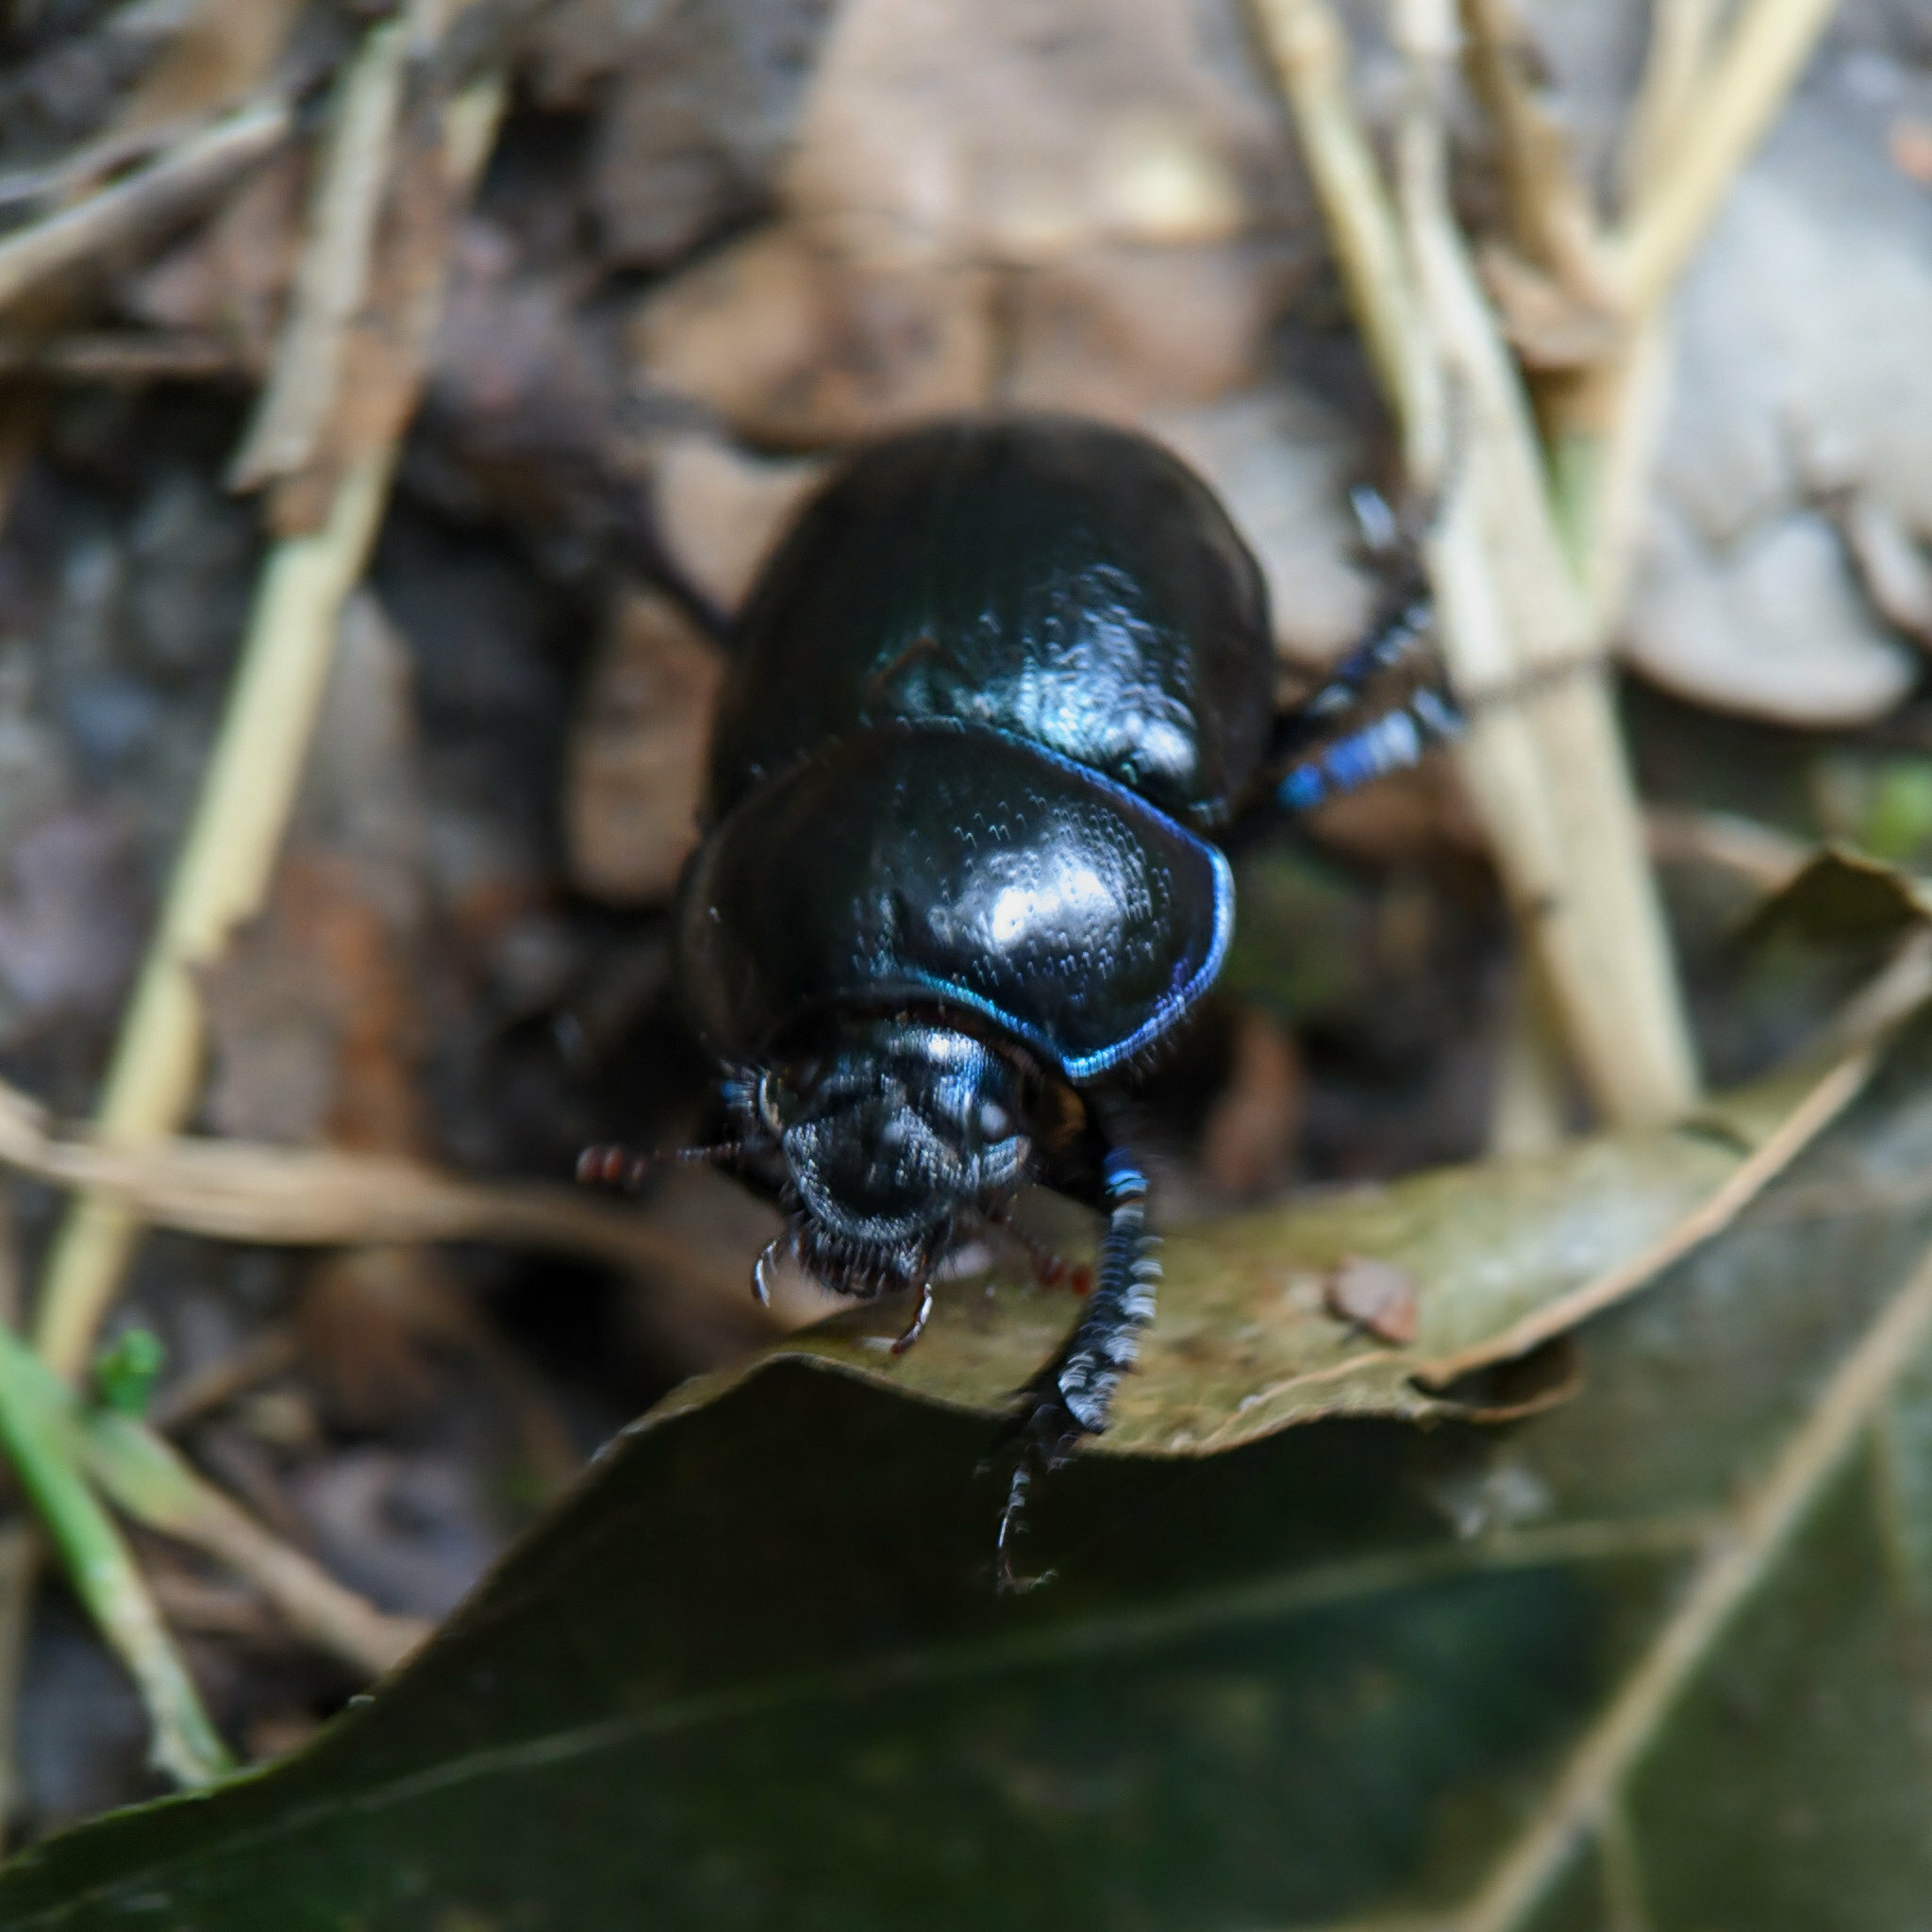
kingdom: Animalia
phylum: Arthropoda
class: Insecta
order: Coleoptera
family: Geotrupidae
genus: Anoplotrupes
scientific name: Anoplotrupes stercorosus
